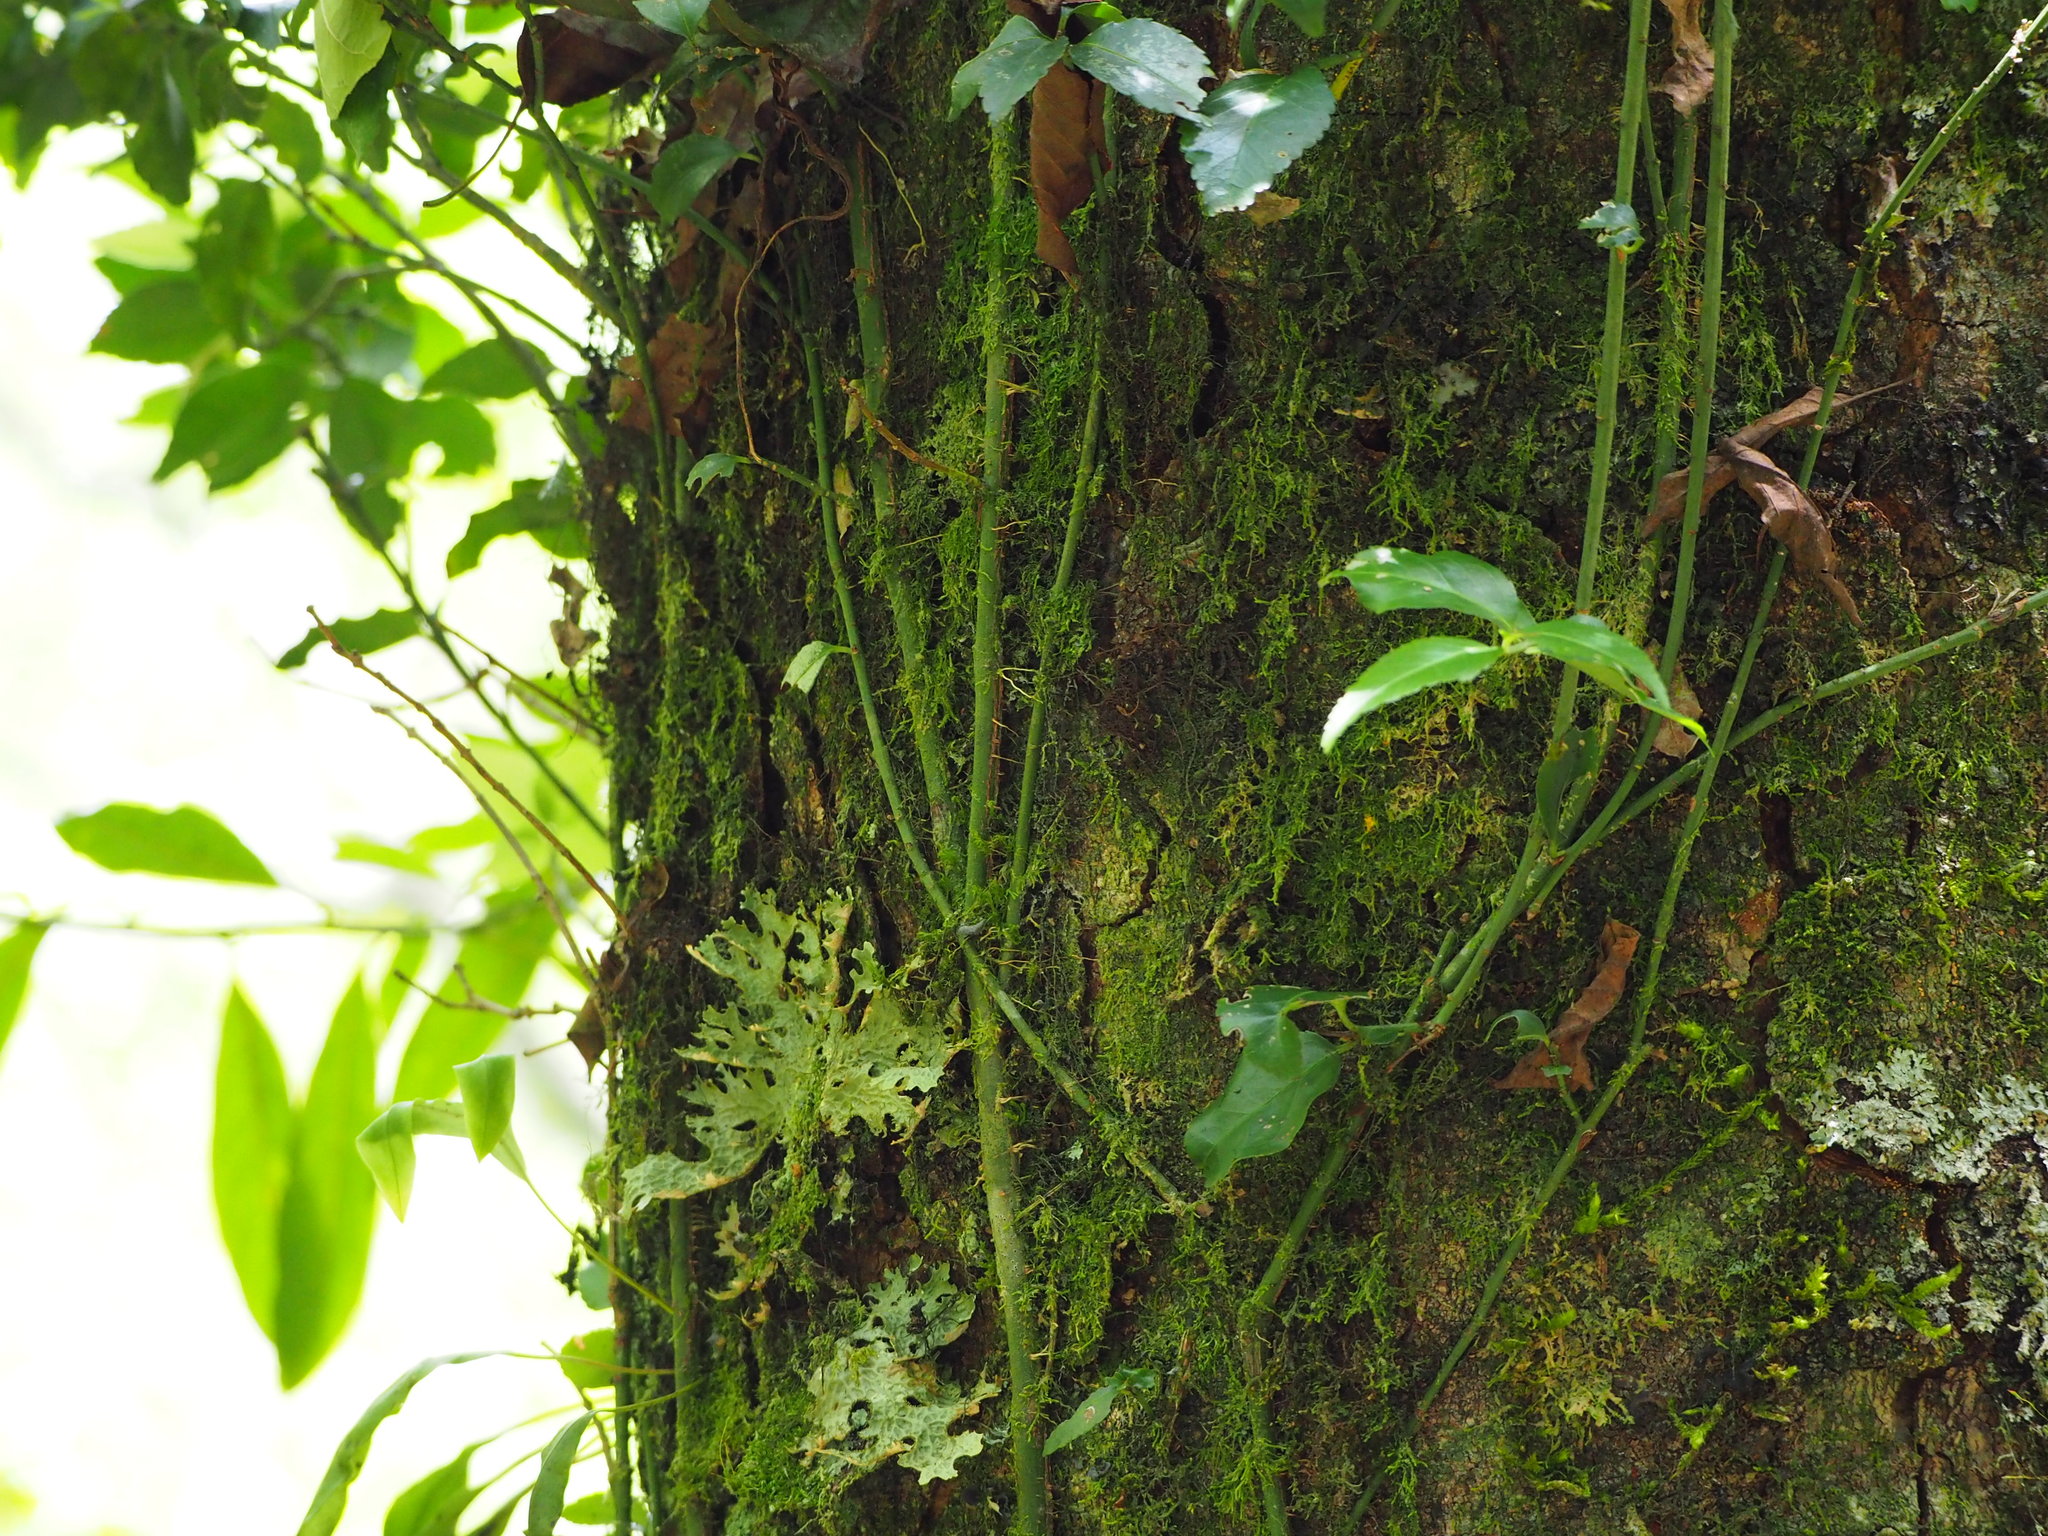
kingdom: Plantae
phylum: Tracheophyta
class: Magnoliopsida
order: Celastrales
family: Celastraceae
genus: Euonymus
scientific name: Euonymus spraguei
